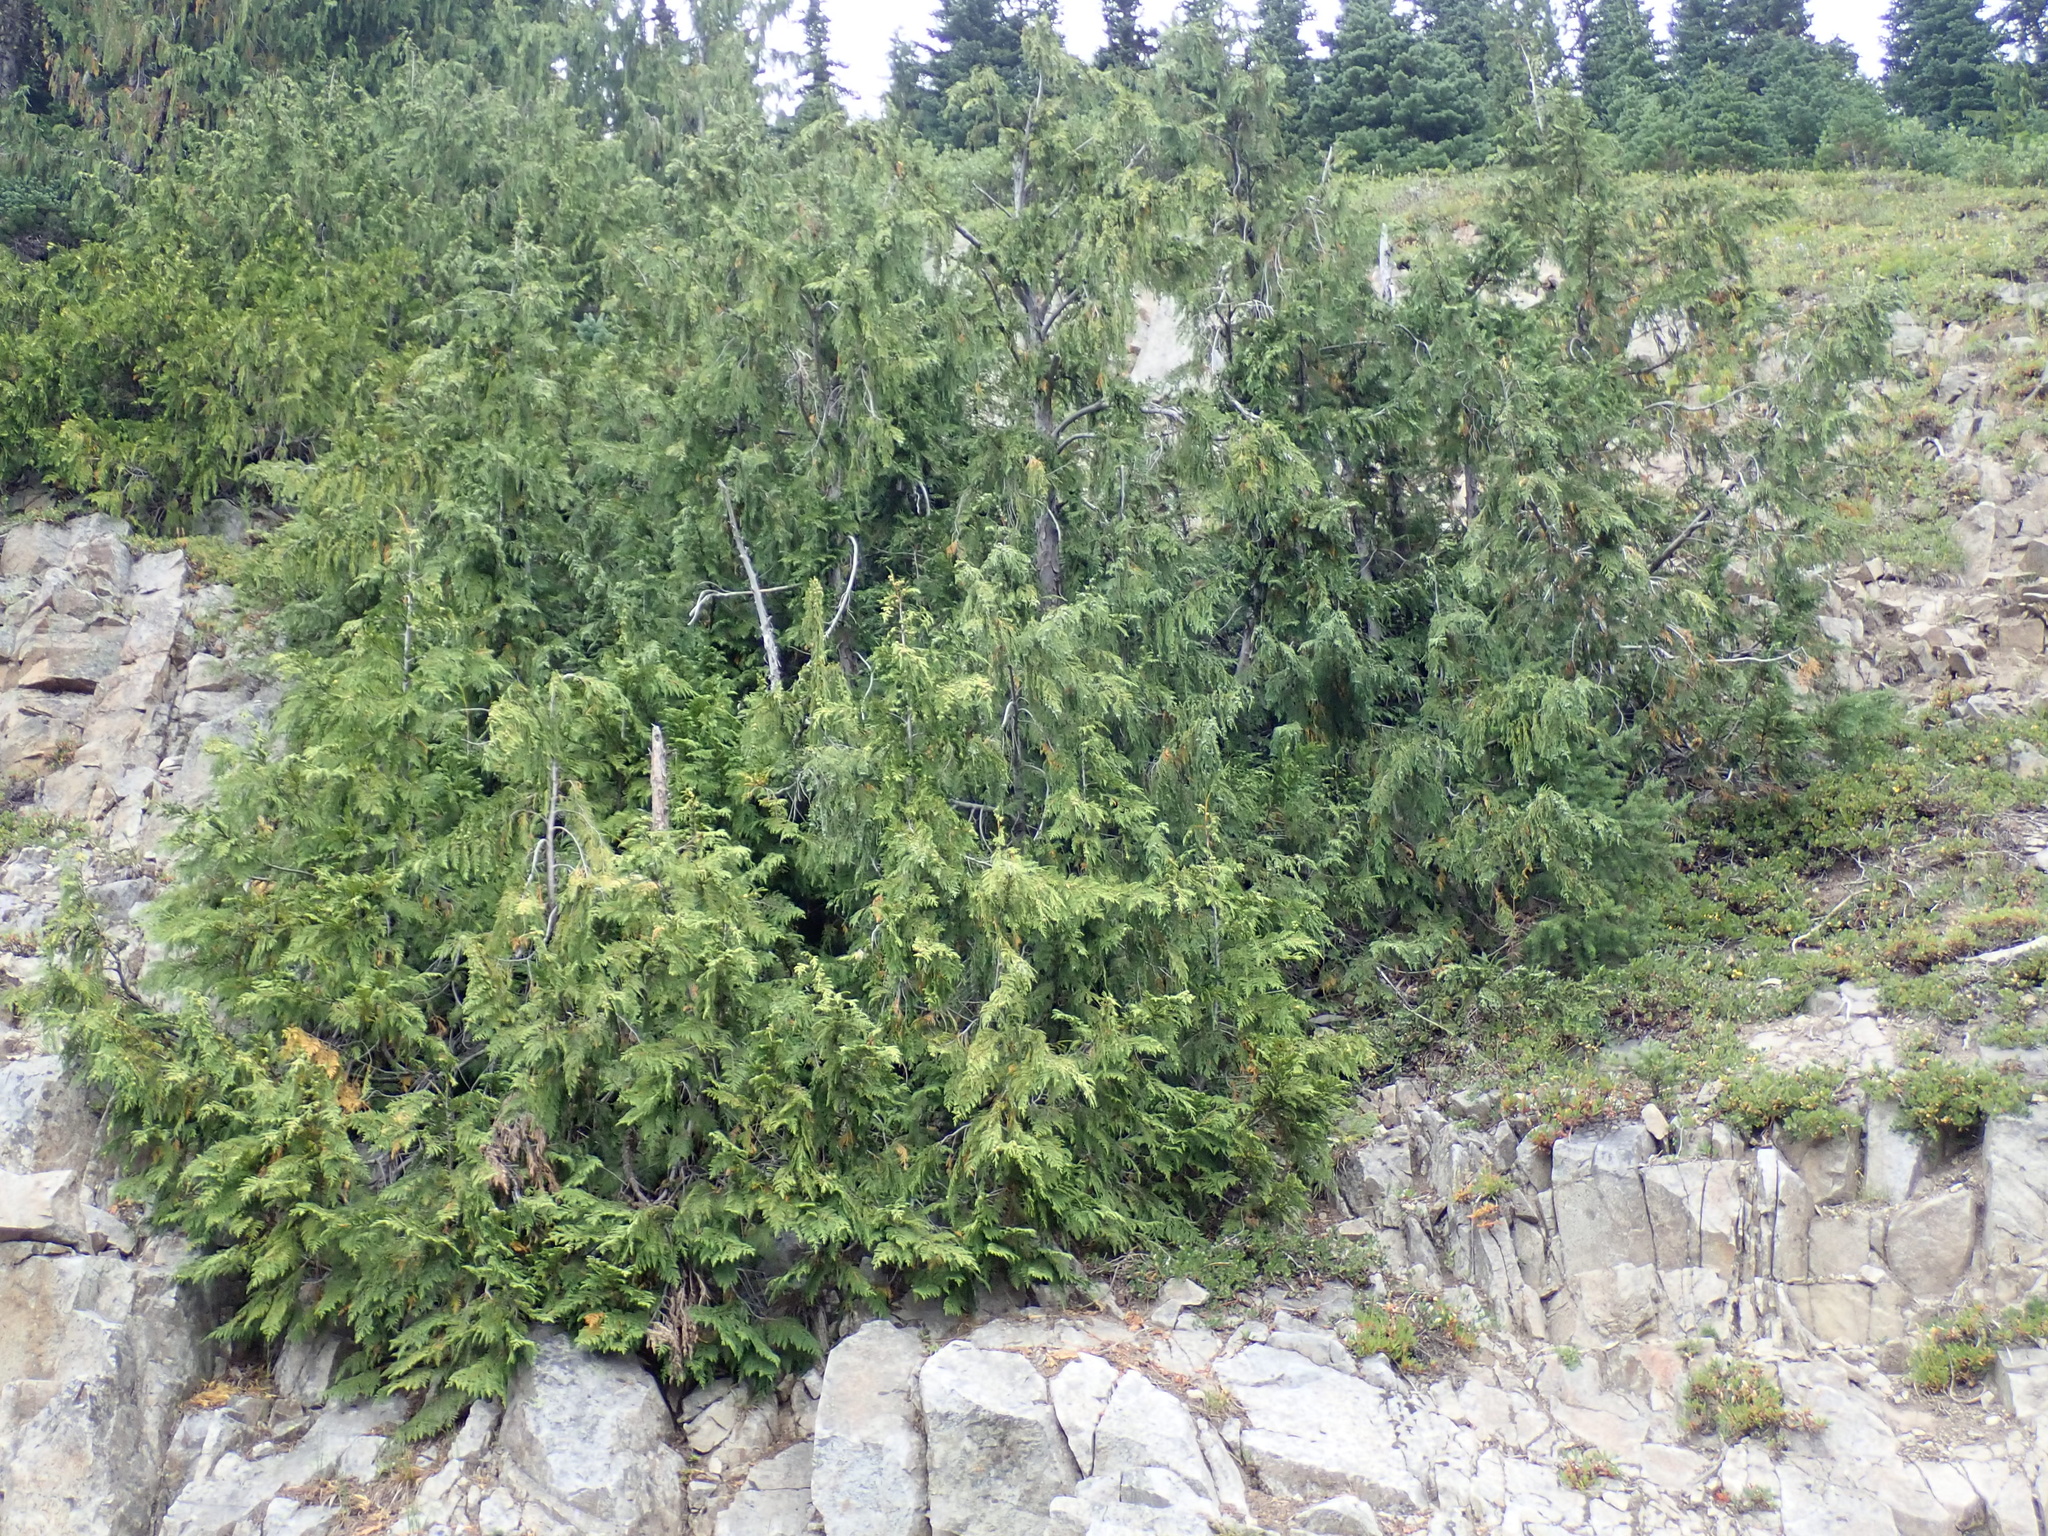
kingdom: Plantae
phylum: Tracheophyta
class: Pinopsida
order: Pinales
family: Cupressaceae
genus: Xanthocyparis
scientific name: Xanthocyparis nootkatensis
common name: Nootka cypress
